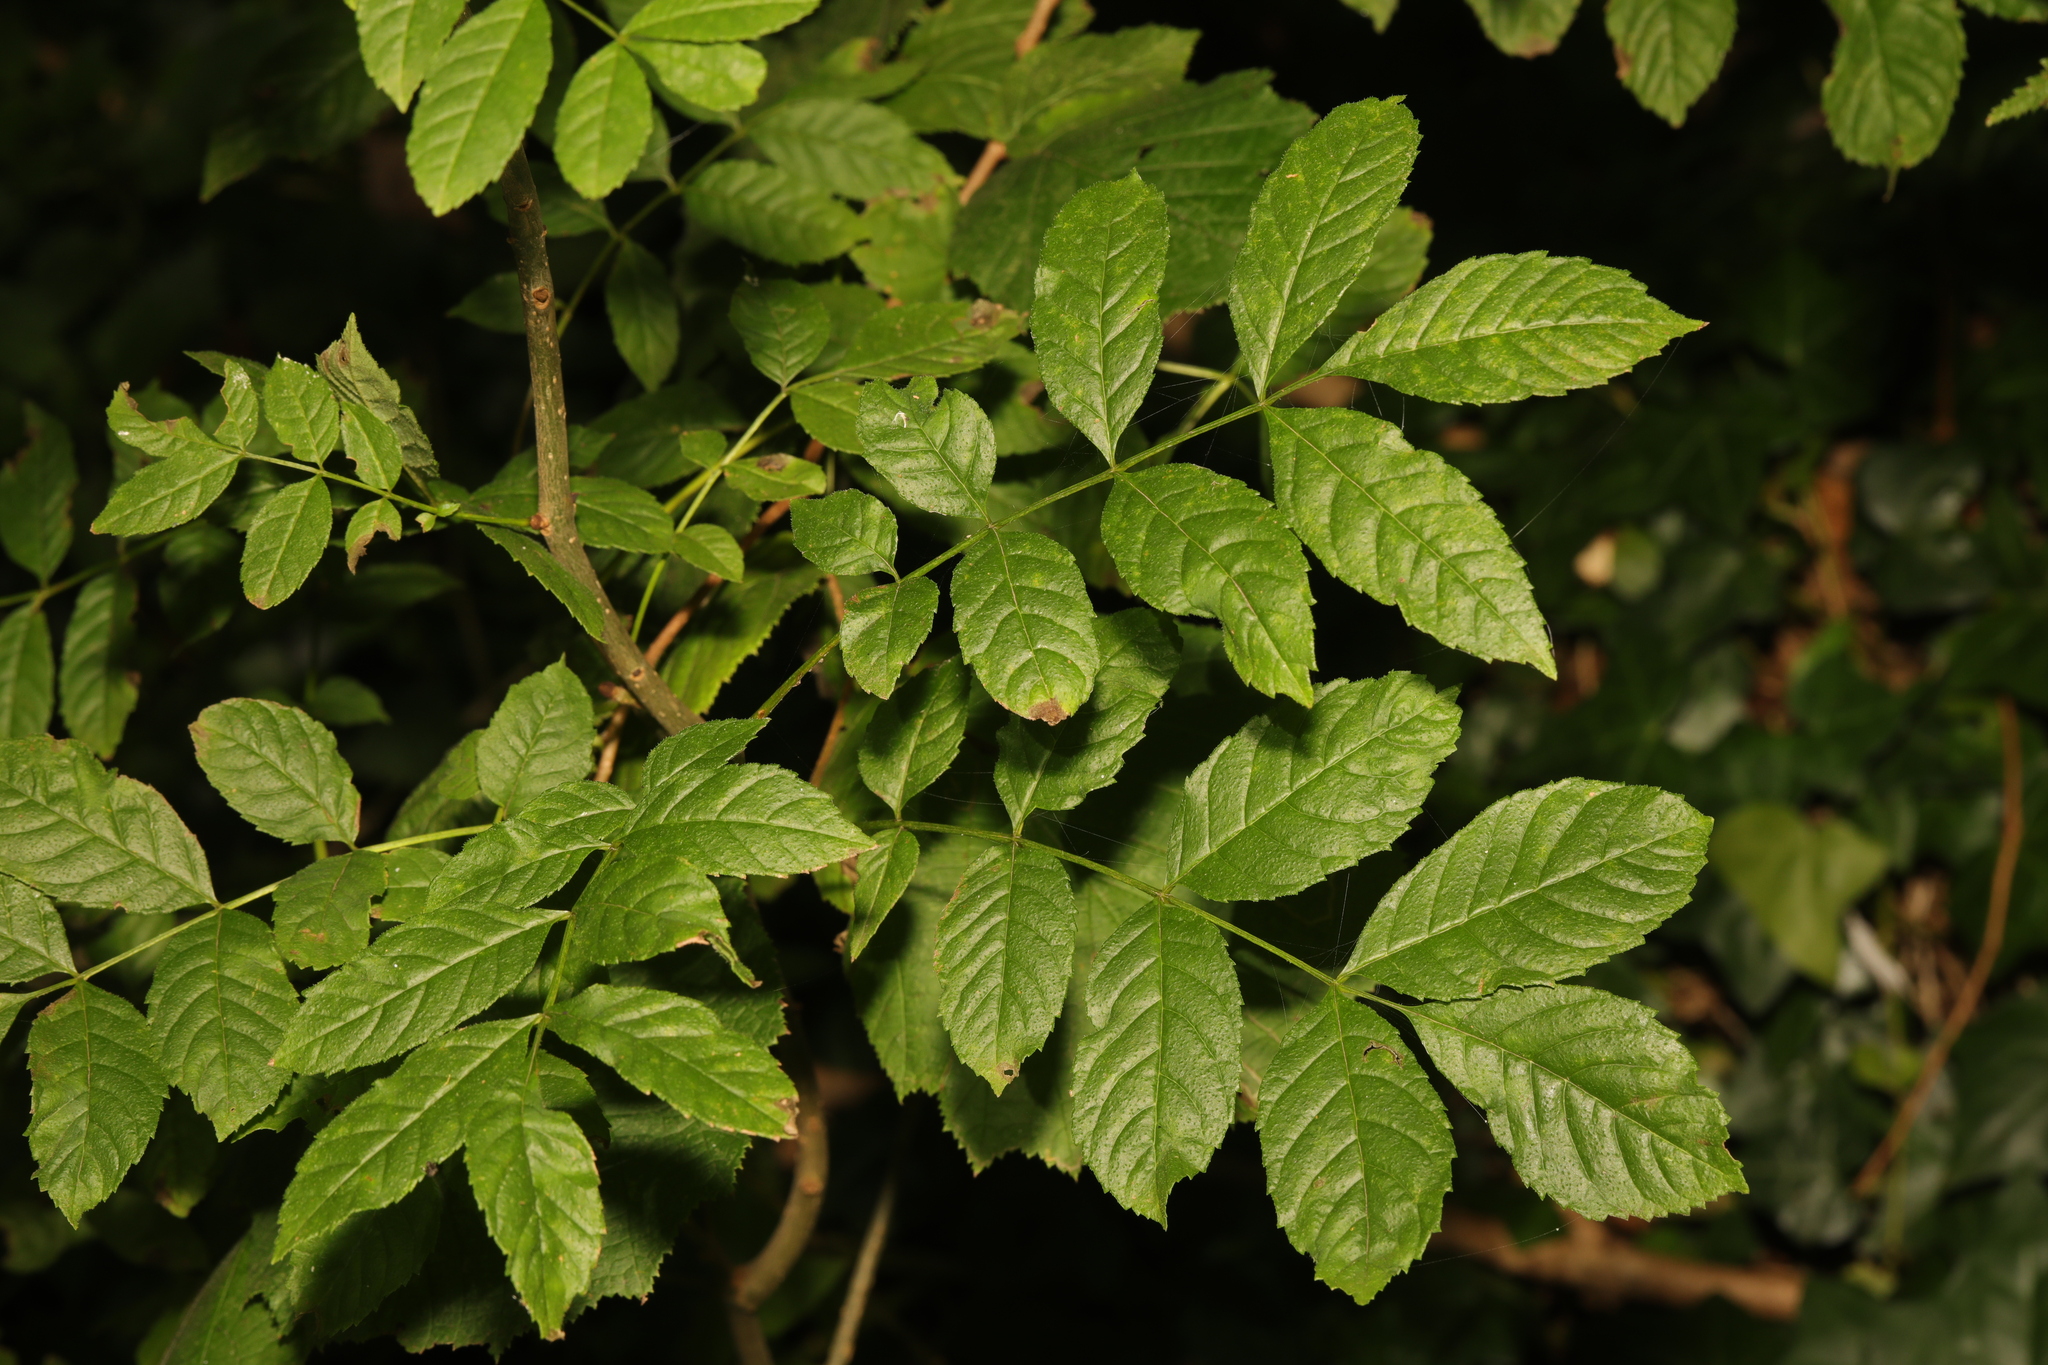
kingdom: Plantae
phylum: Tracheophyta
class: Magnoliopsida
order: Lamiales
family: Oleaceae
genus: Fraxinus
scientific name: Fraxinus excelsior
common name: European ash
